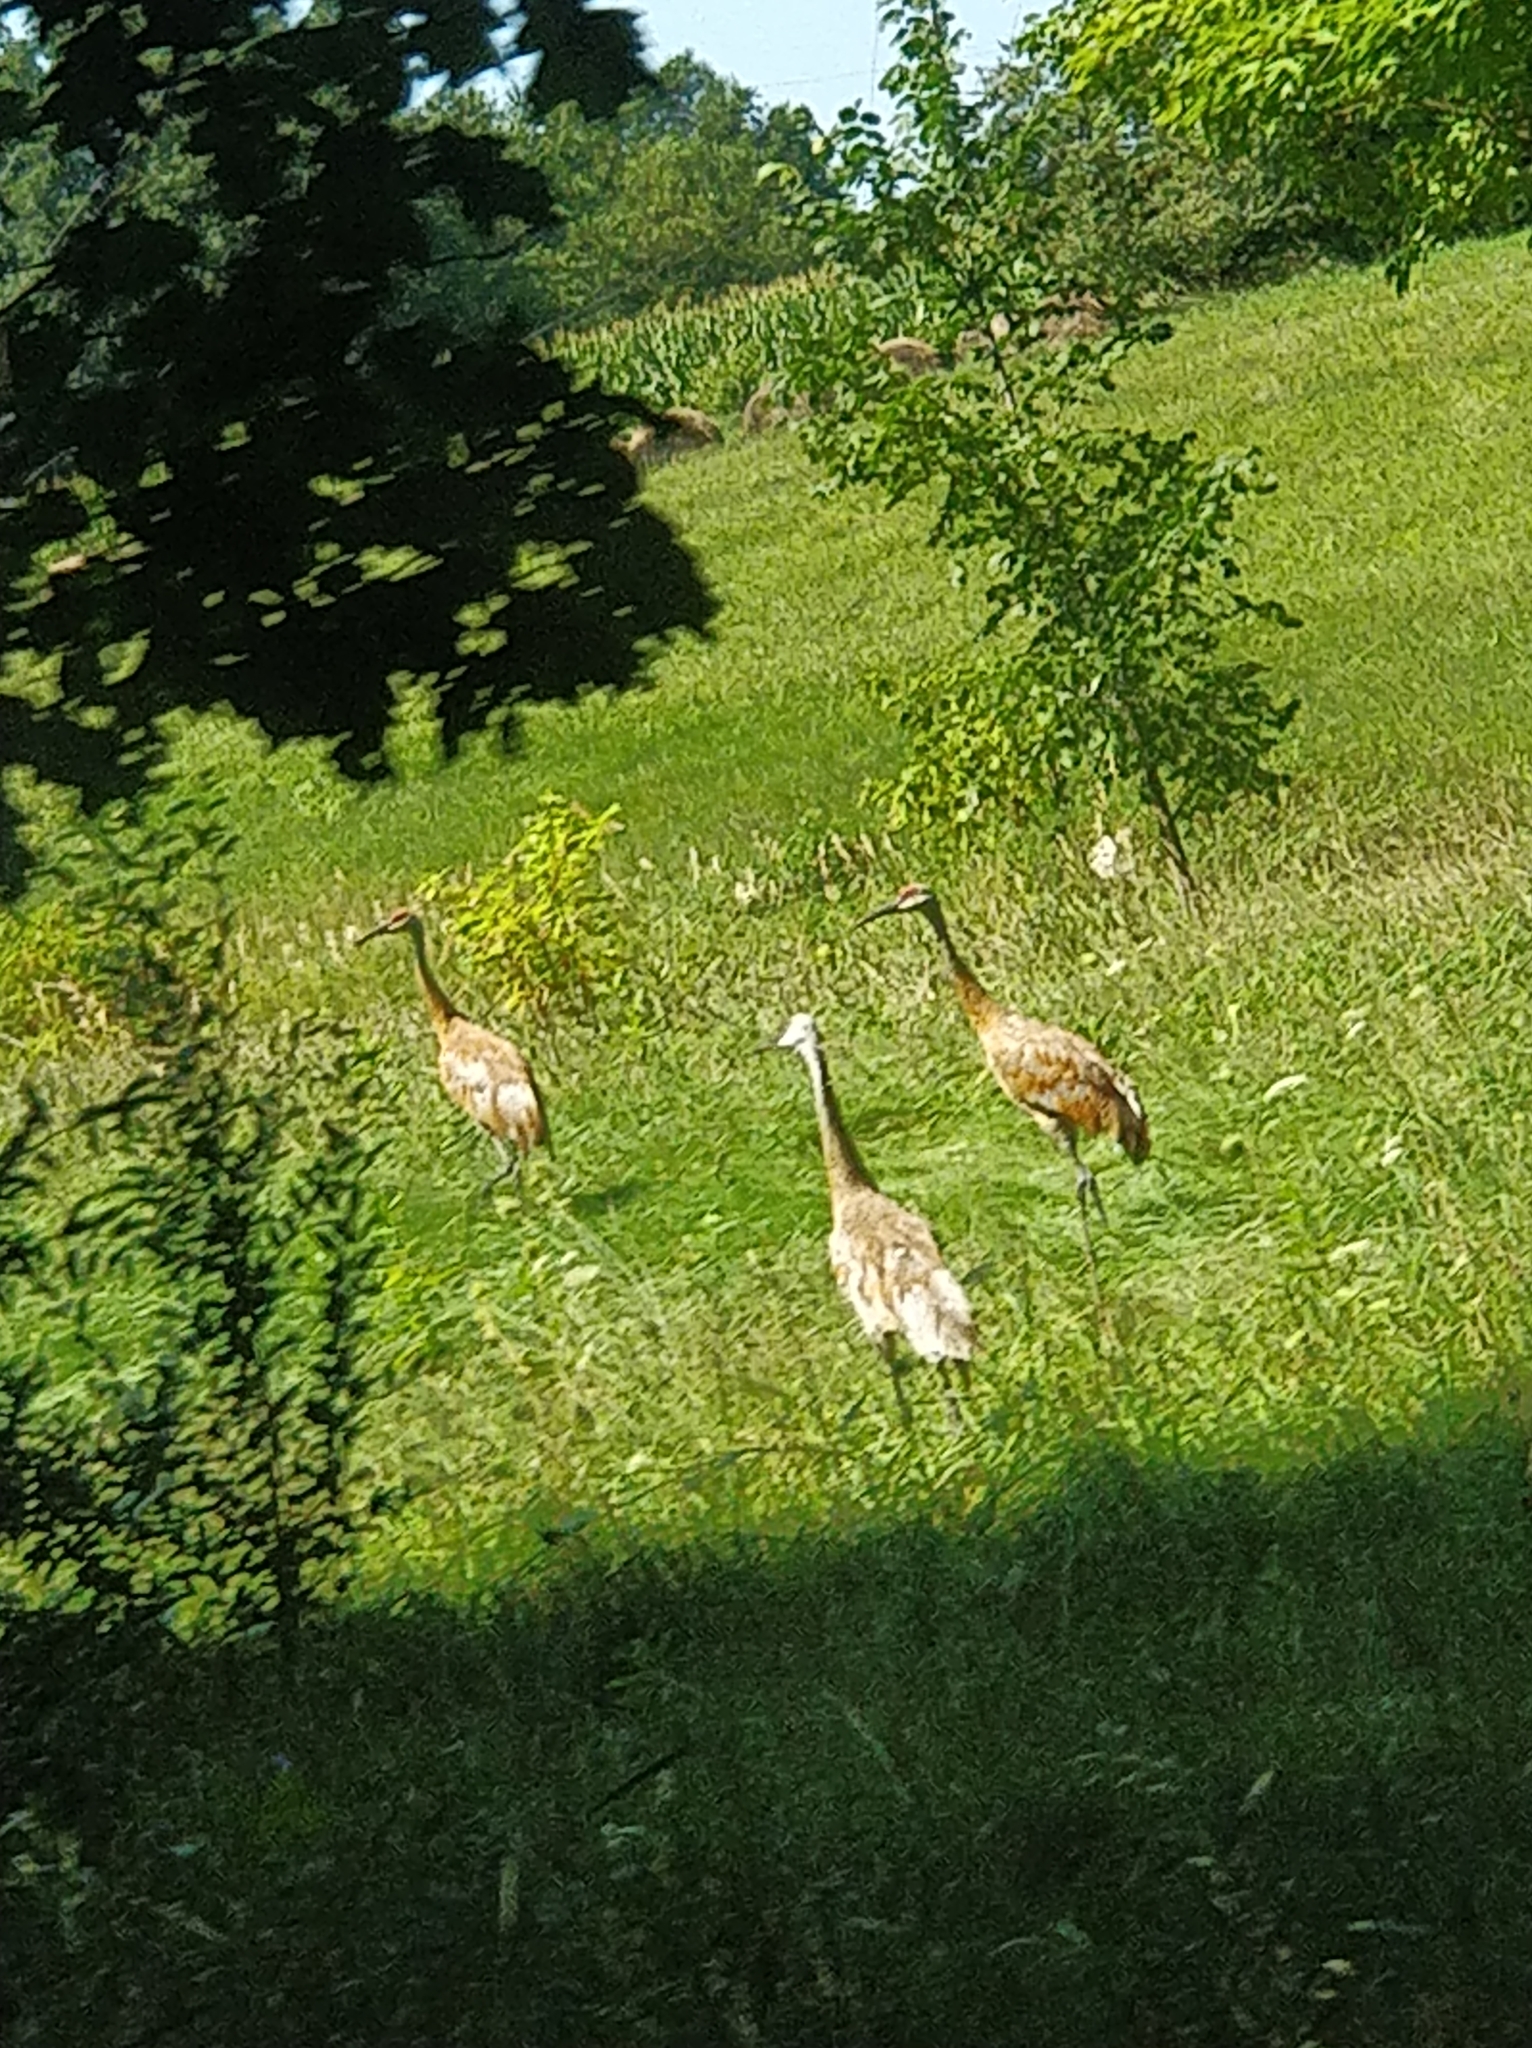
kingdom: Animalia
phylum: Chordata
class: Aves
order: Gruiformes
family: Gruidae
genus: Grus
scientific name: Grus canadensis
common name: Sandhill crane
